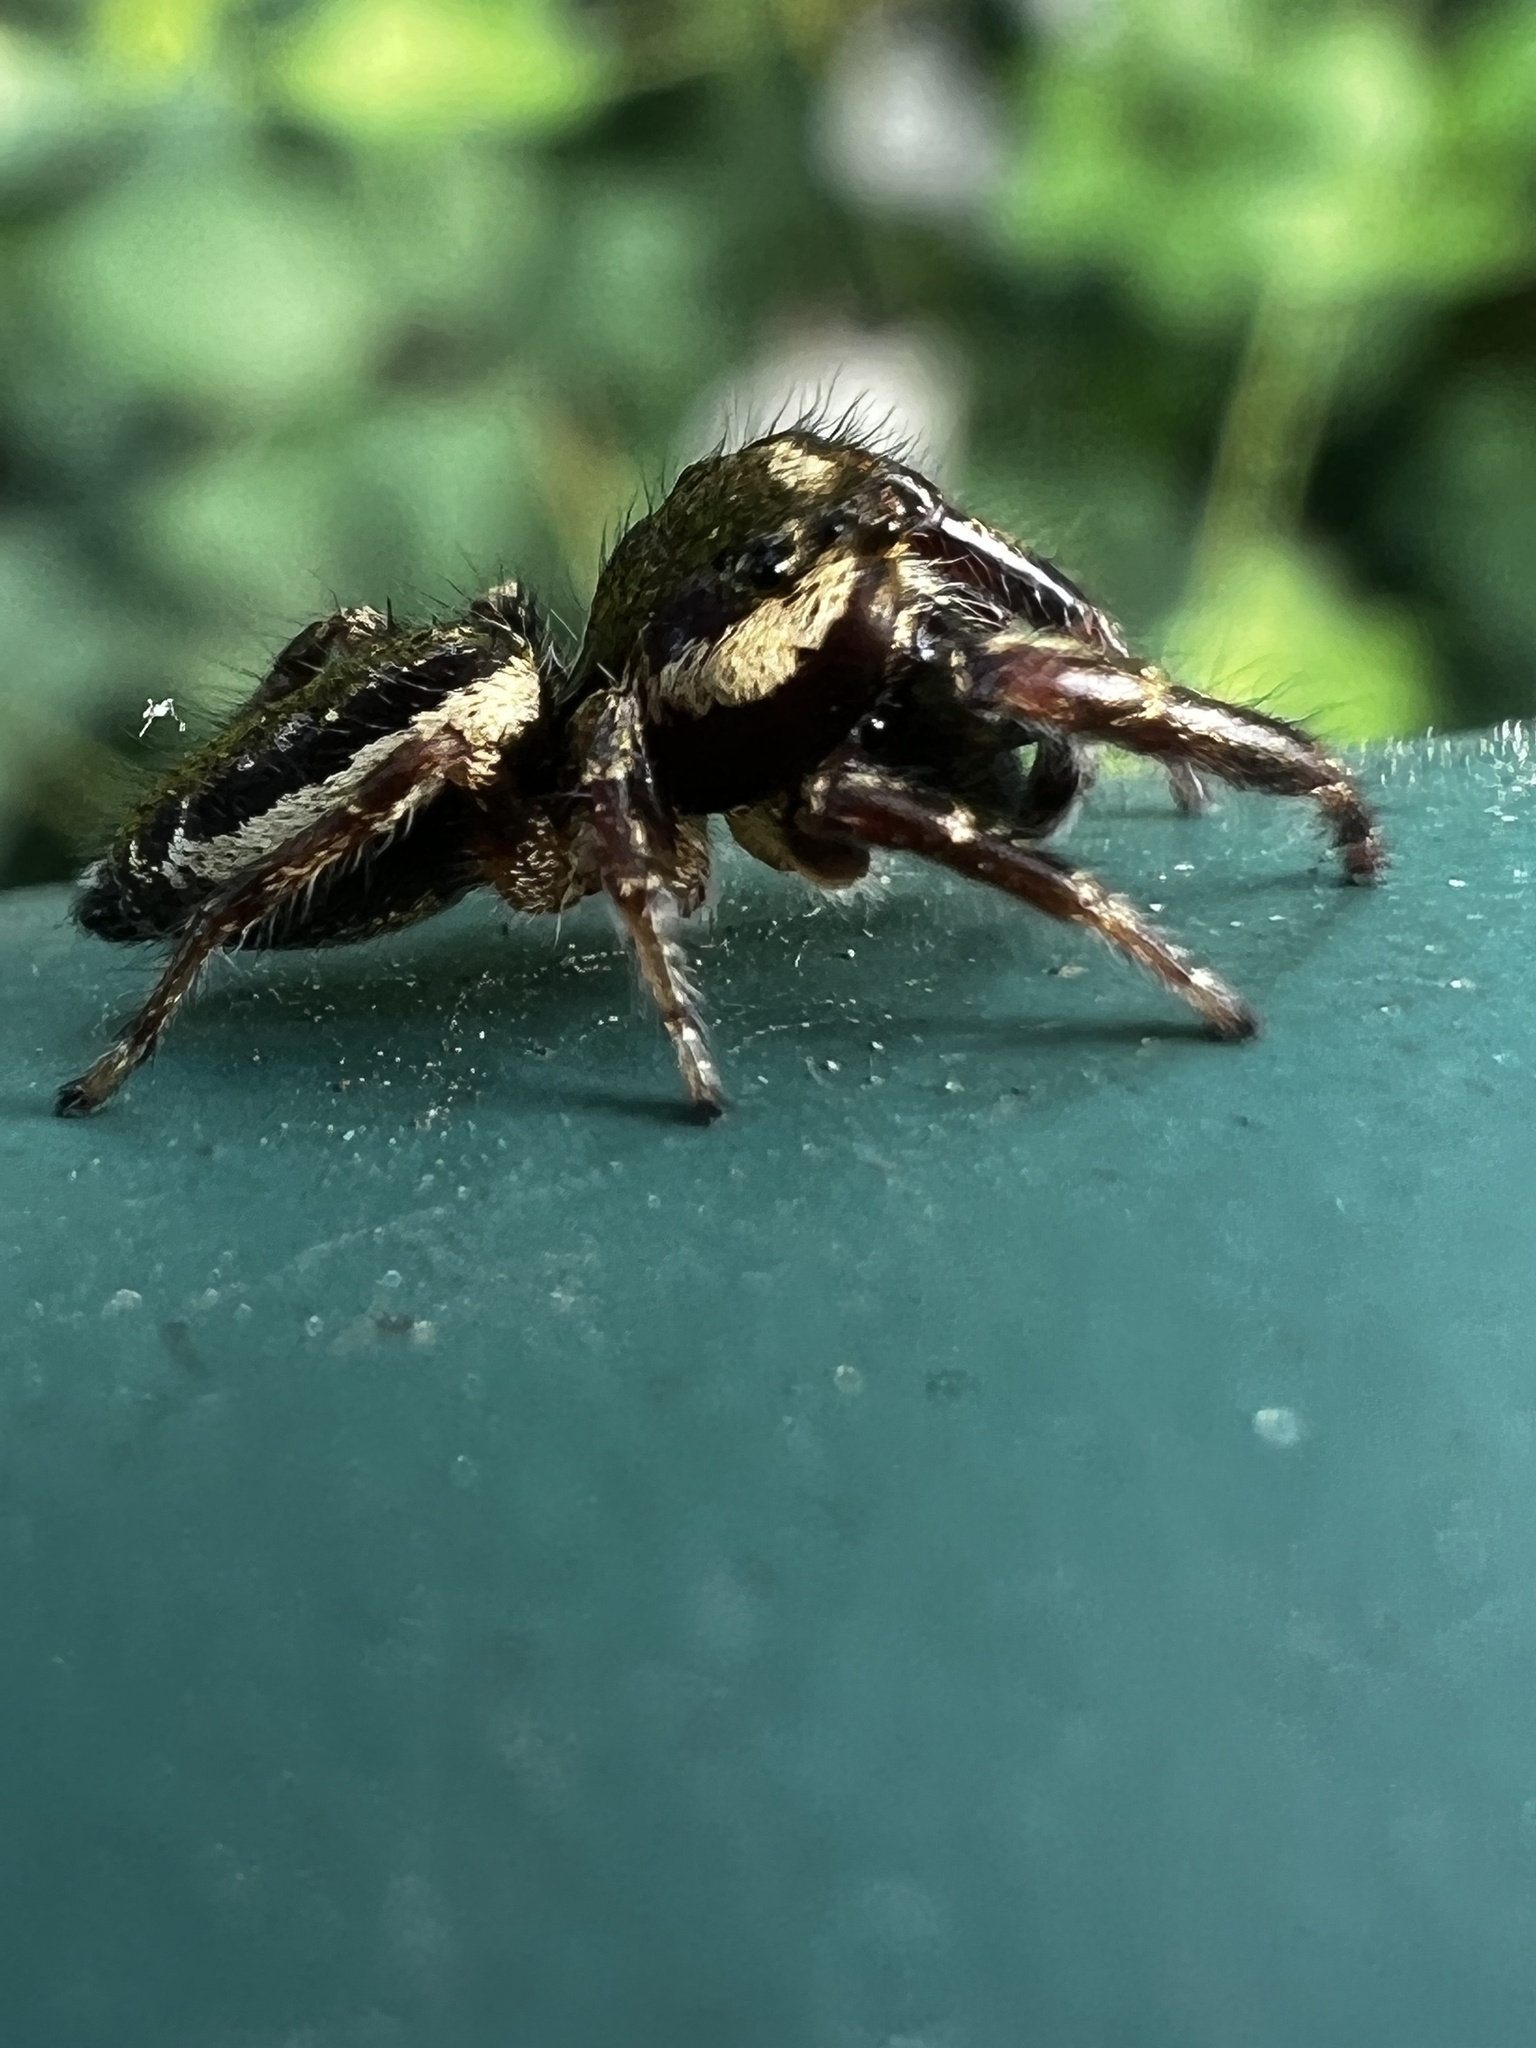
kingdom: Animalia
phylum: Arthropoda
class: Arachnida
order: Araneae
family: Salticidae
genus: Eris
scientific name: Eris militaris
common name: Bronze jumper
